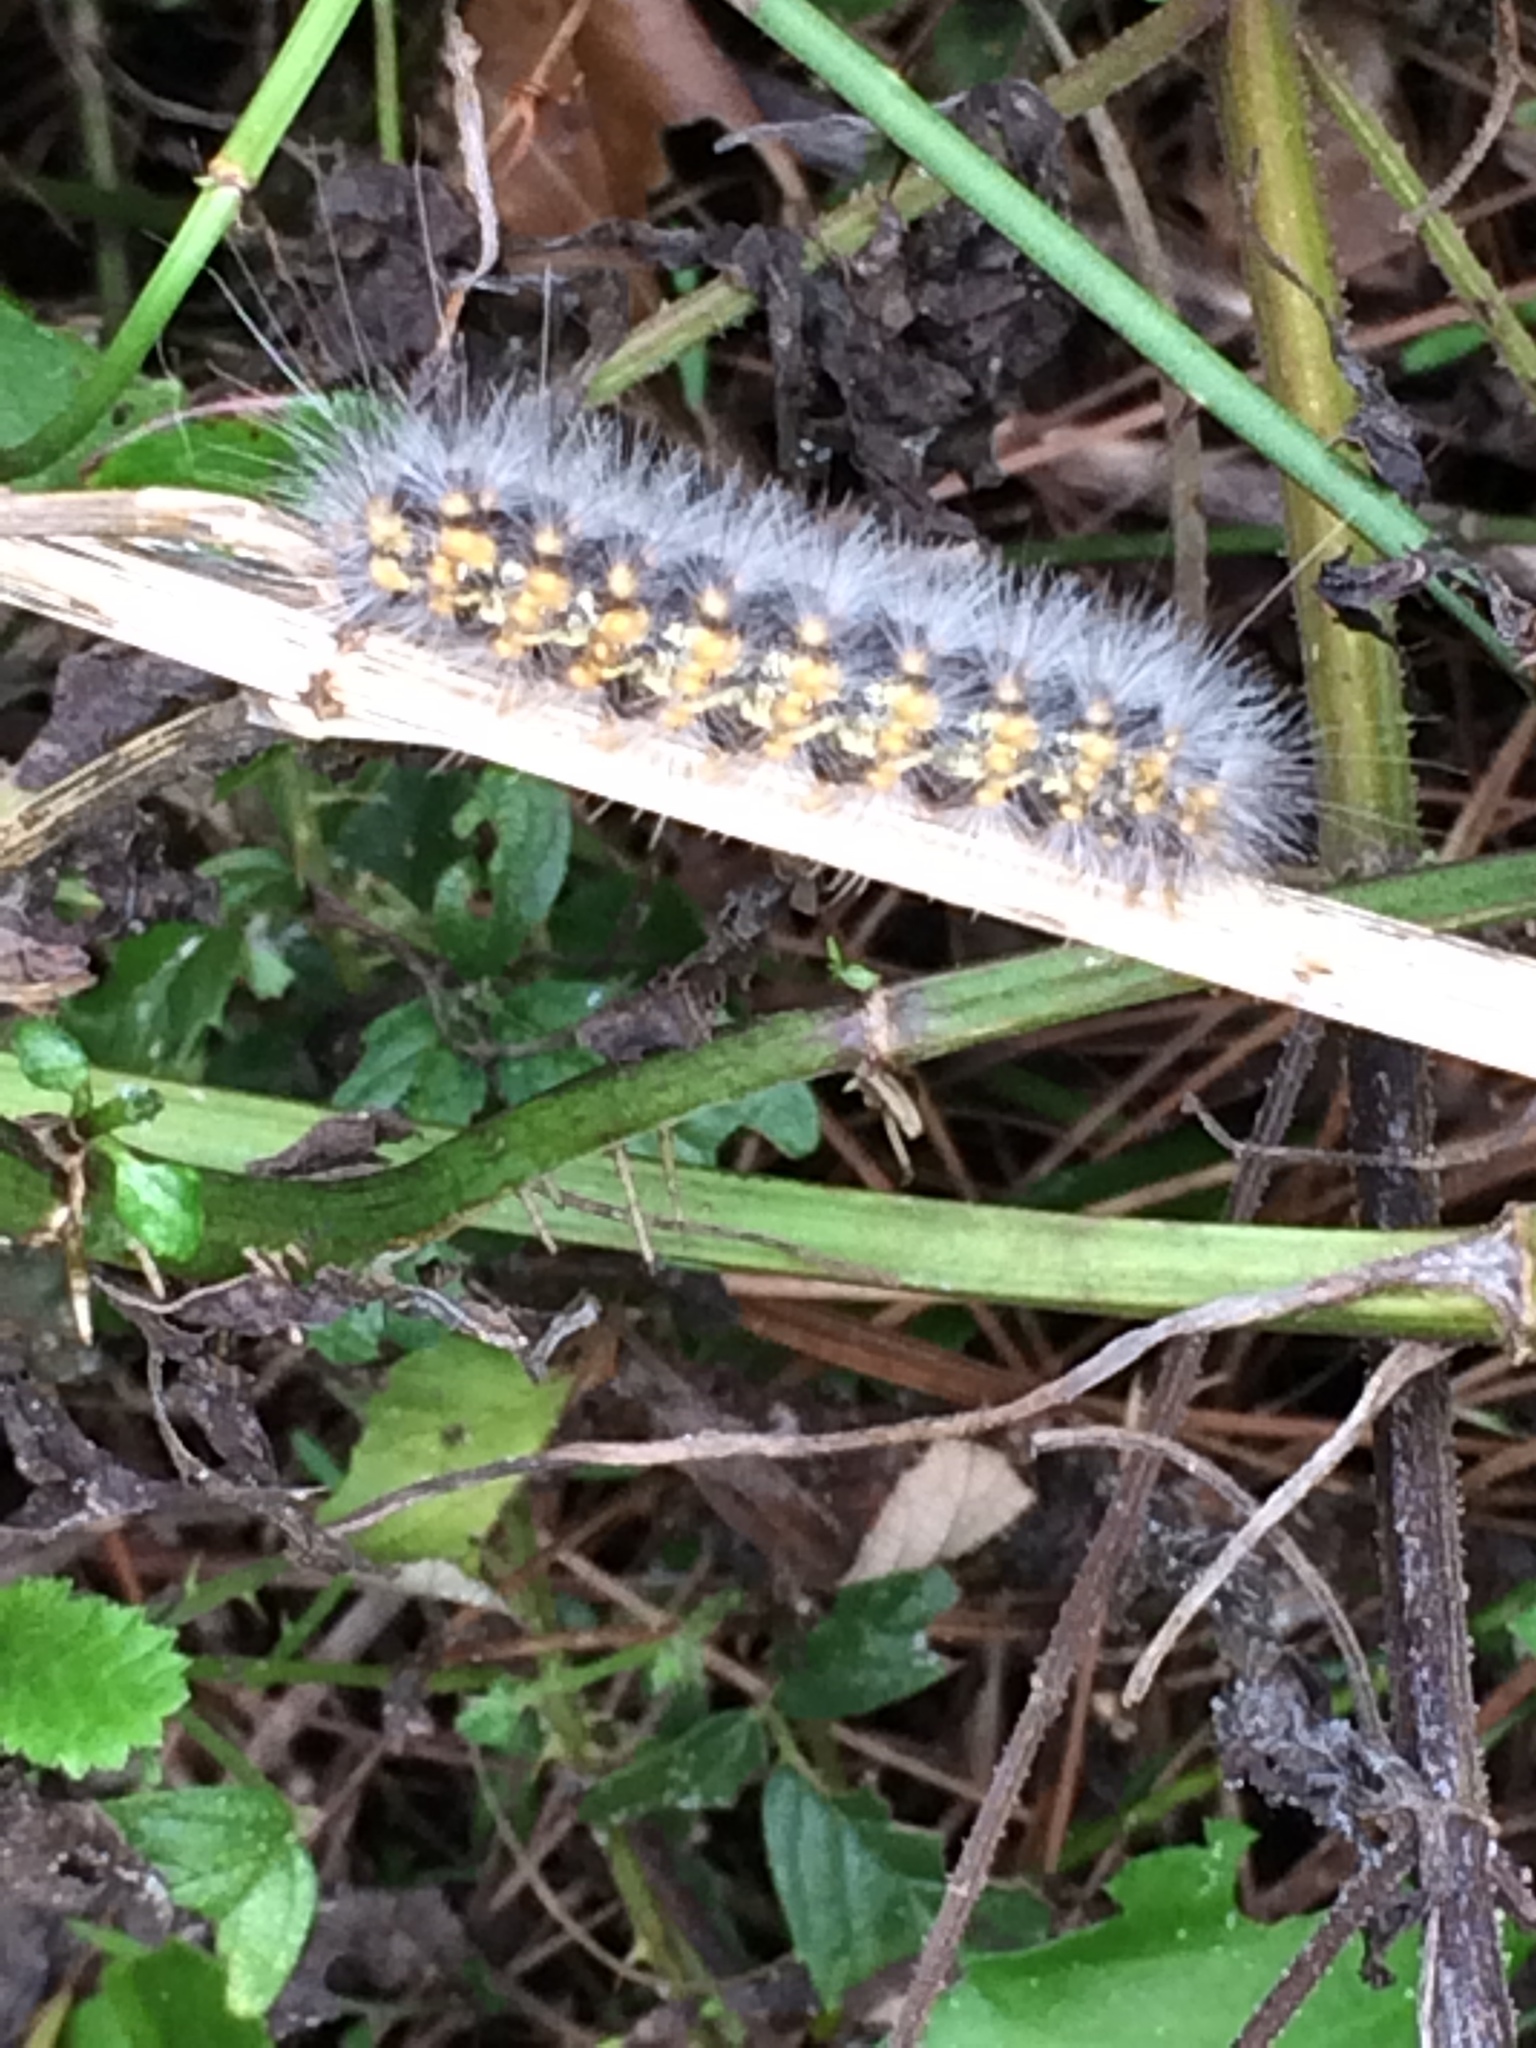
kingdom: Animalia
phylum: Arthropoda
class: Insecta
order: Lepidoptera
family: Erebidae
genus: Estigmene
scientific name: Estigmene acrea
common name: Salt marsh moth
